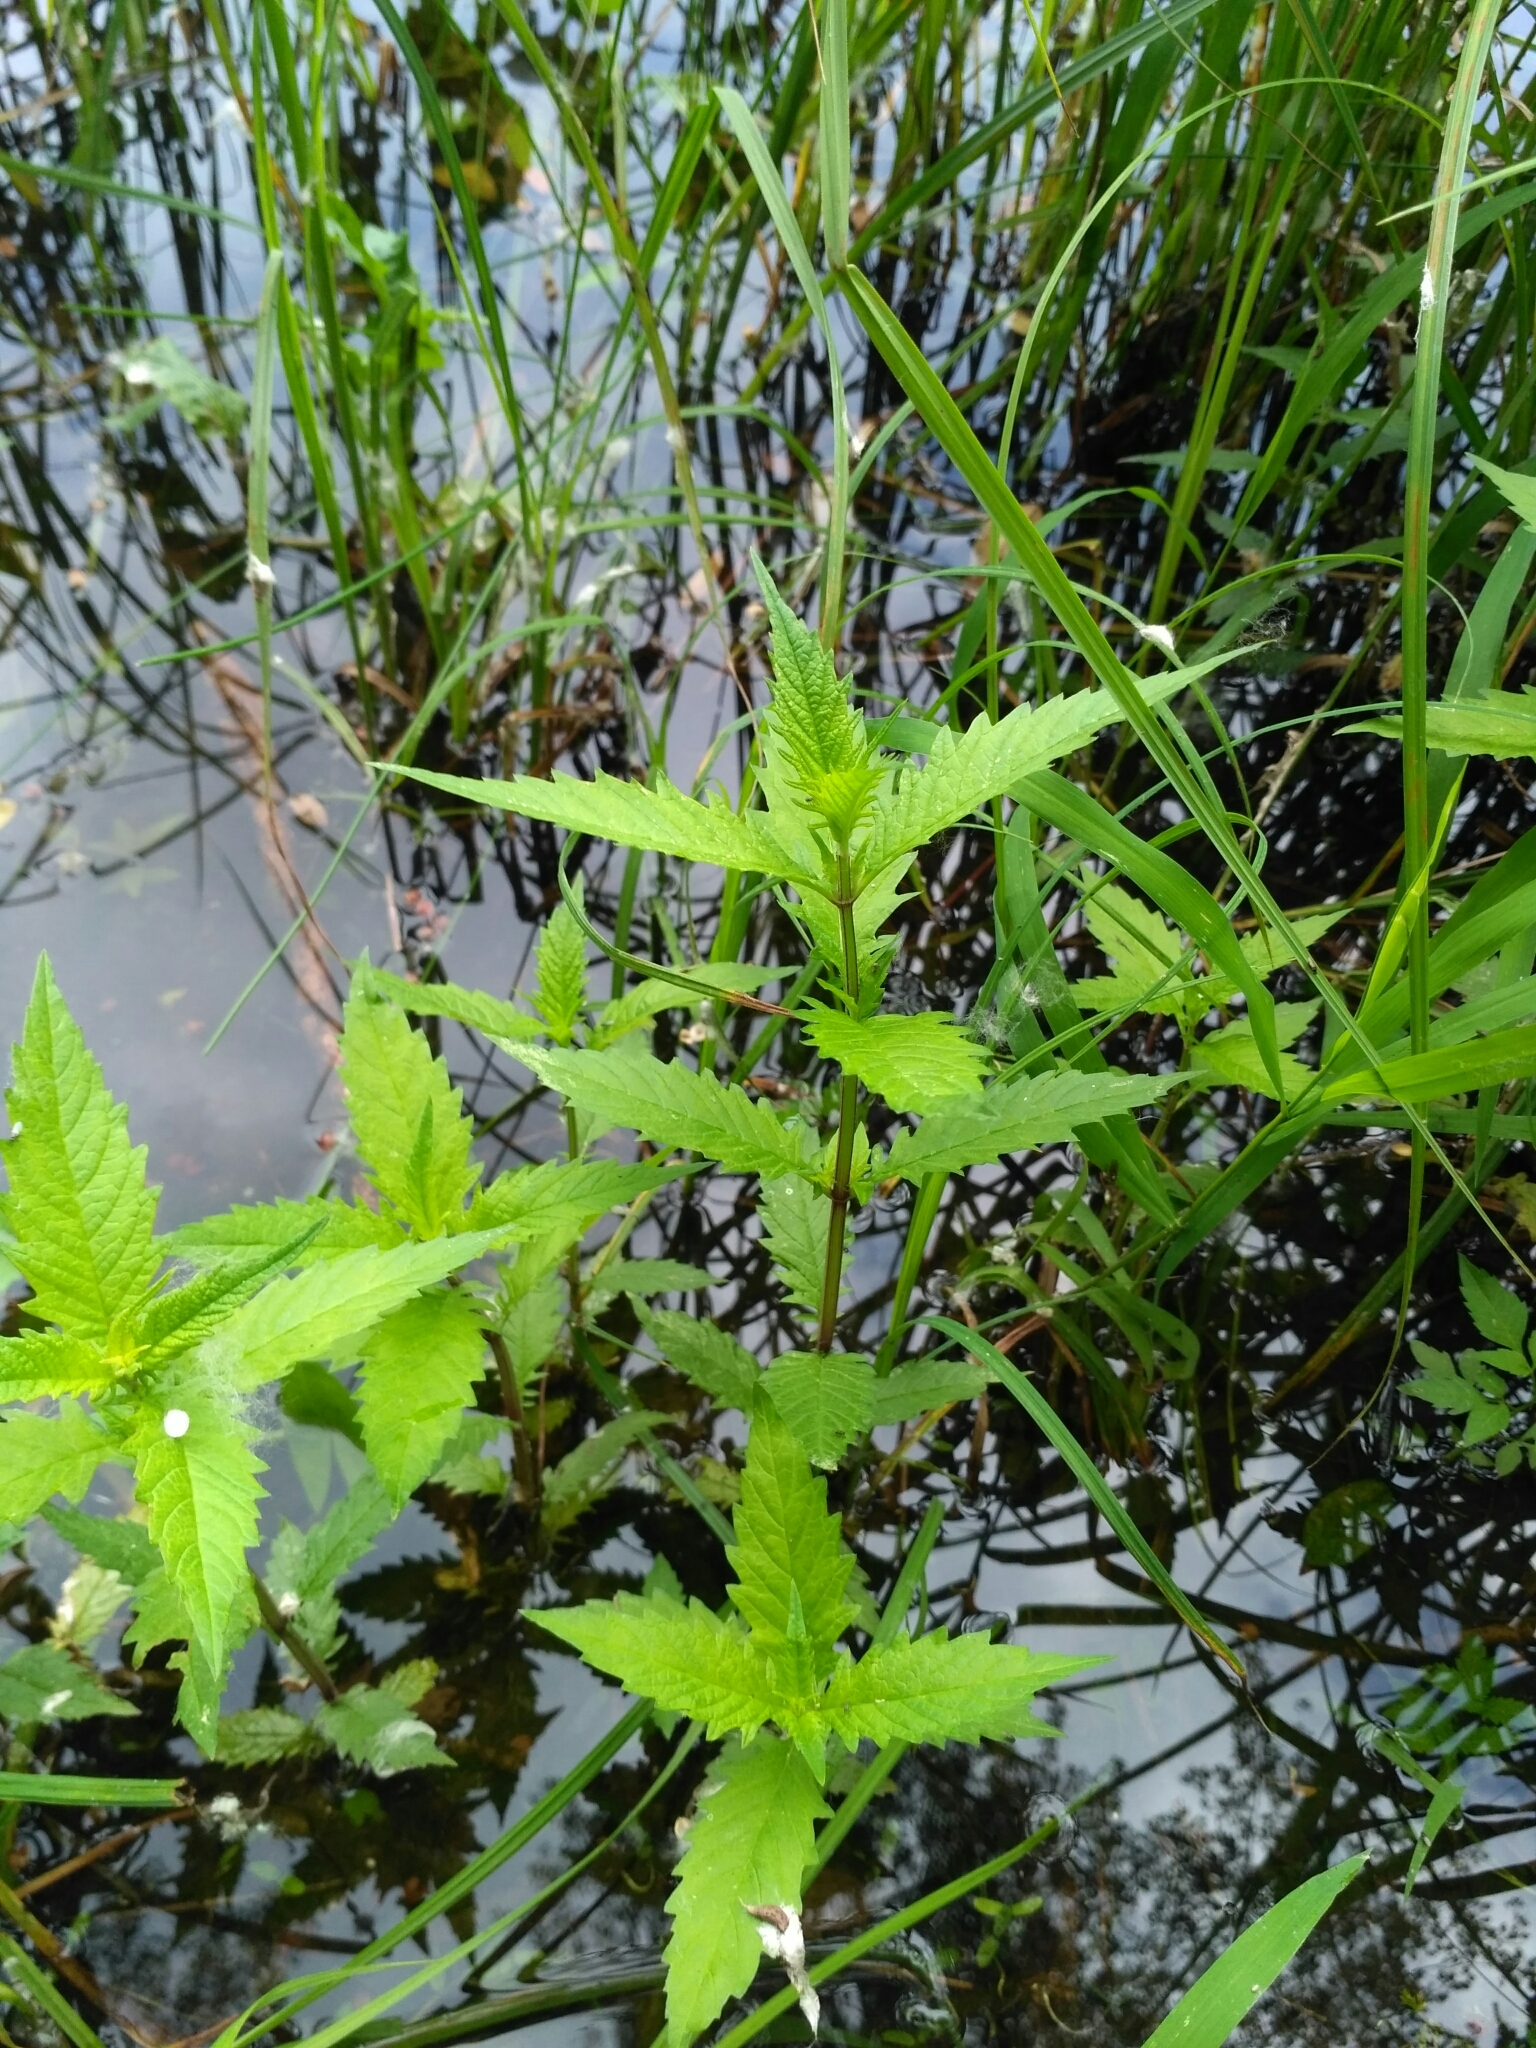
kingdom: Plantae
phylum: Tracheophyta
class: Magnoliopsida
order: Lamiales
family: Lamiaceae
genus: Lycopus
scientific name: Lycopus europaeus
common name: European bugleweed
